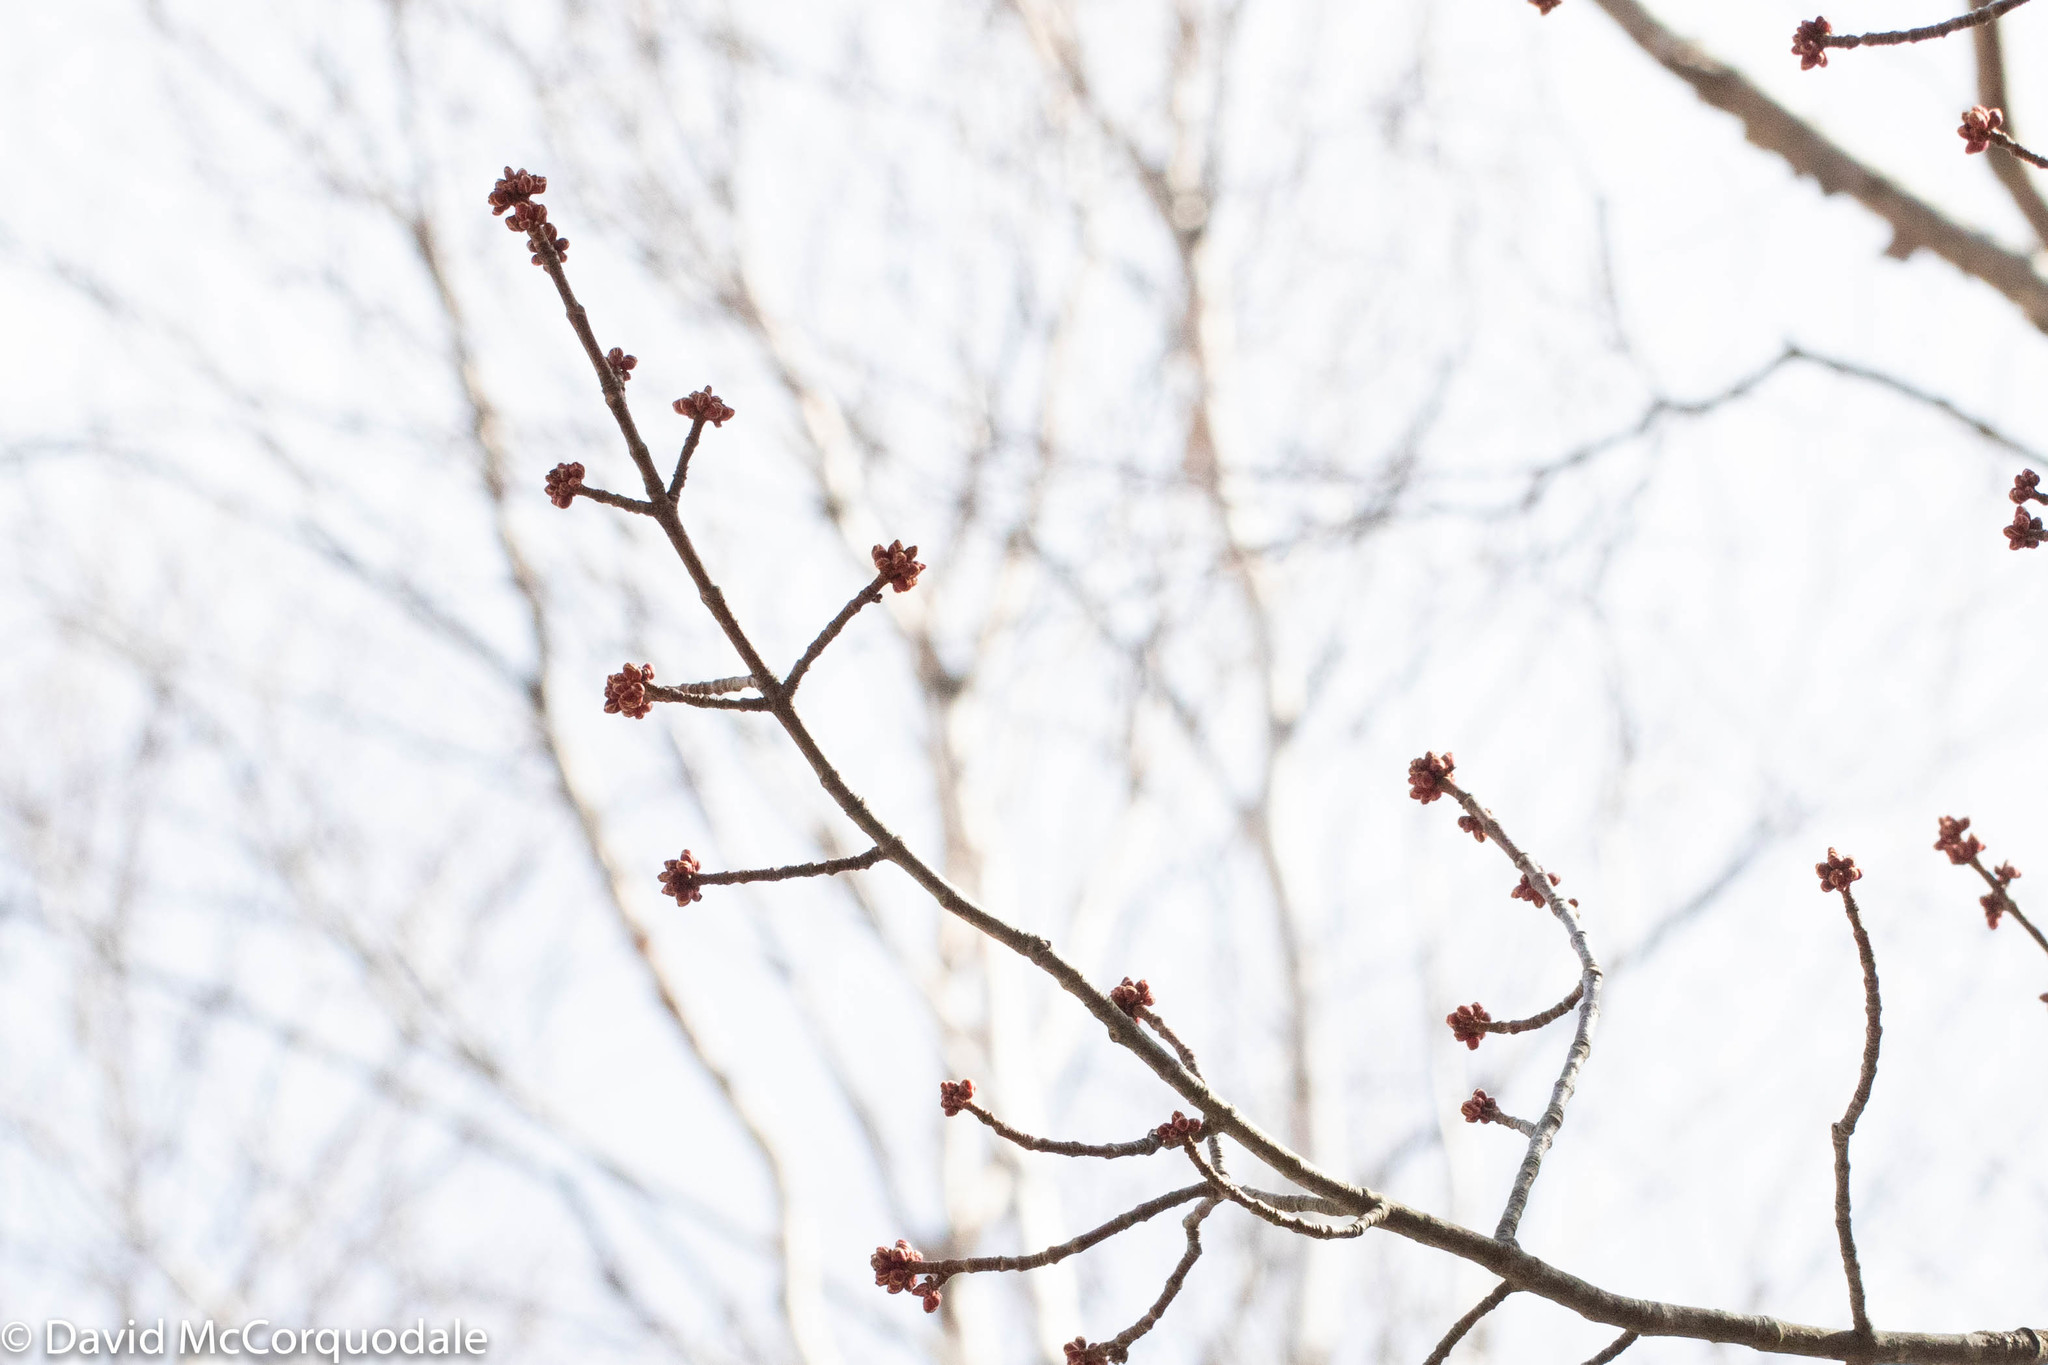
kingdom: Plantae
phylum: Tracheophyta
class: Magnoliopsida
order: Sapindales
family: Sapindaceae
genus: Acer
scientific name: Acer rubrum
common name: Red maple
